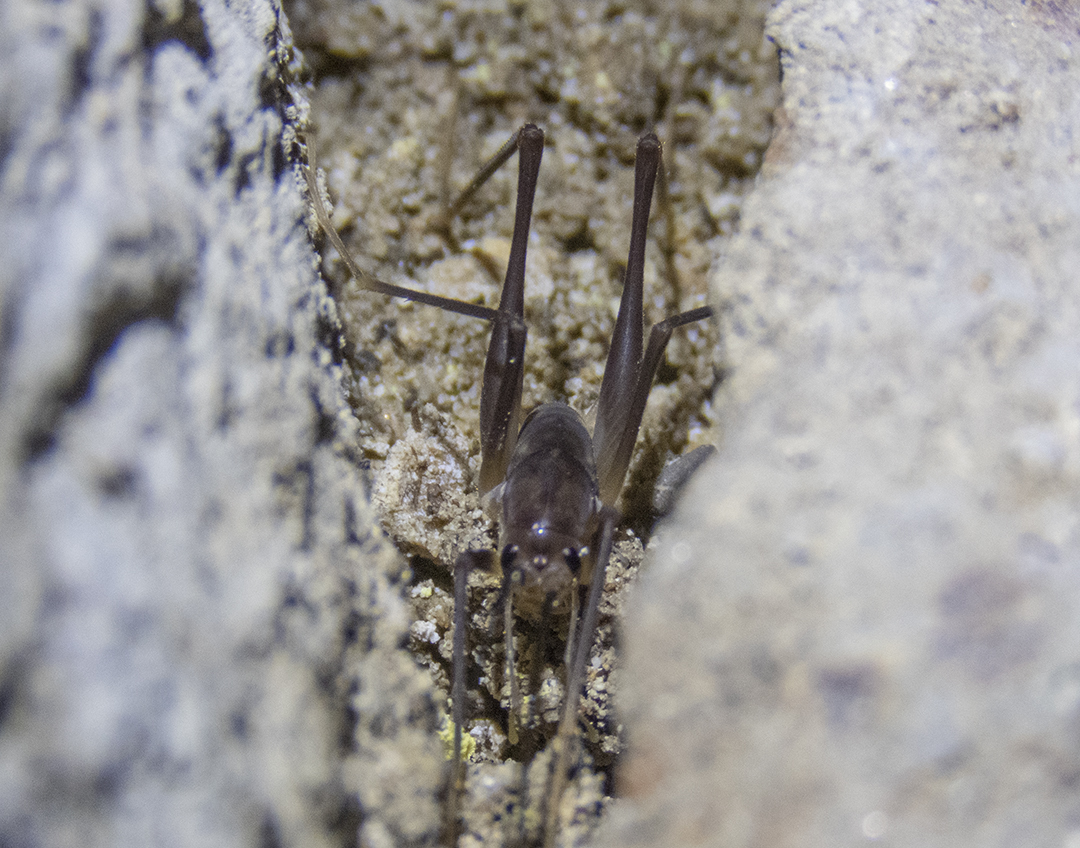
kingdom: Animalia
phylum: Arthropoda
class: Insecta
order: Orthoptera
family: Rhaphidophoridae
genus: Macropathus
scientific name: Macropathus filifer
